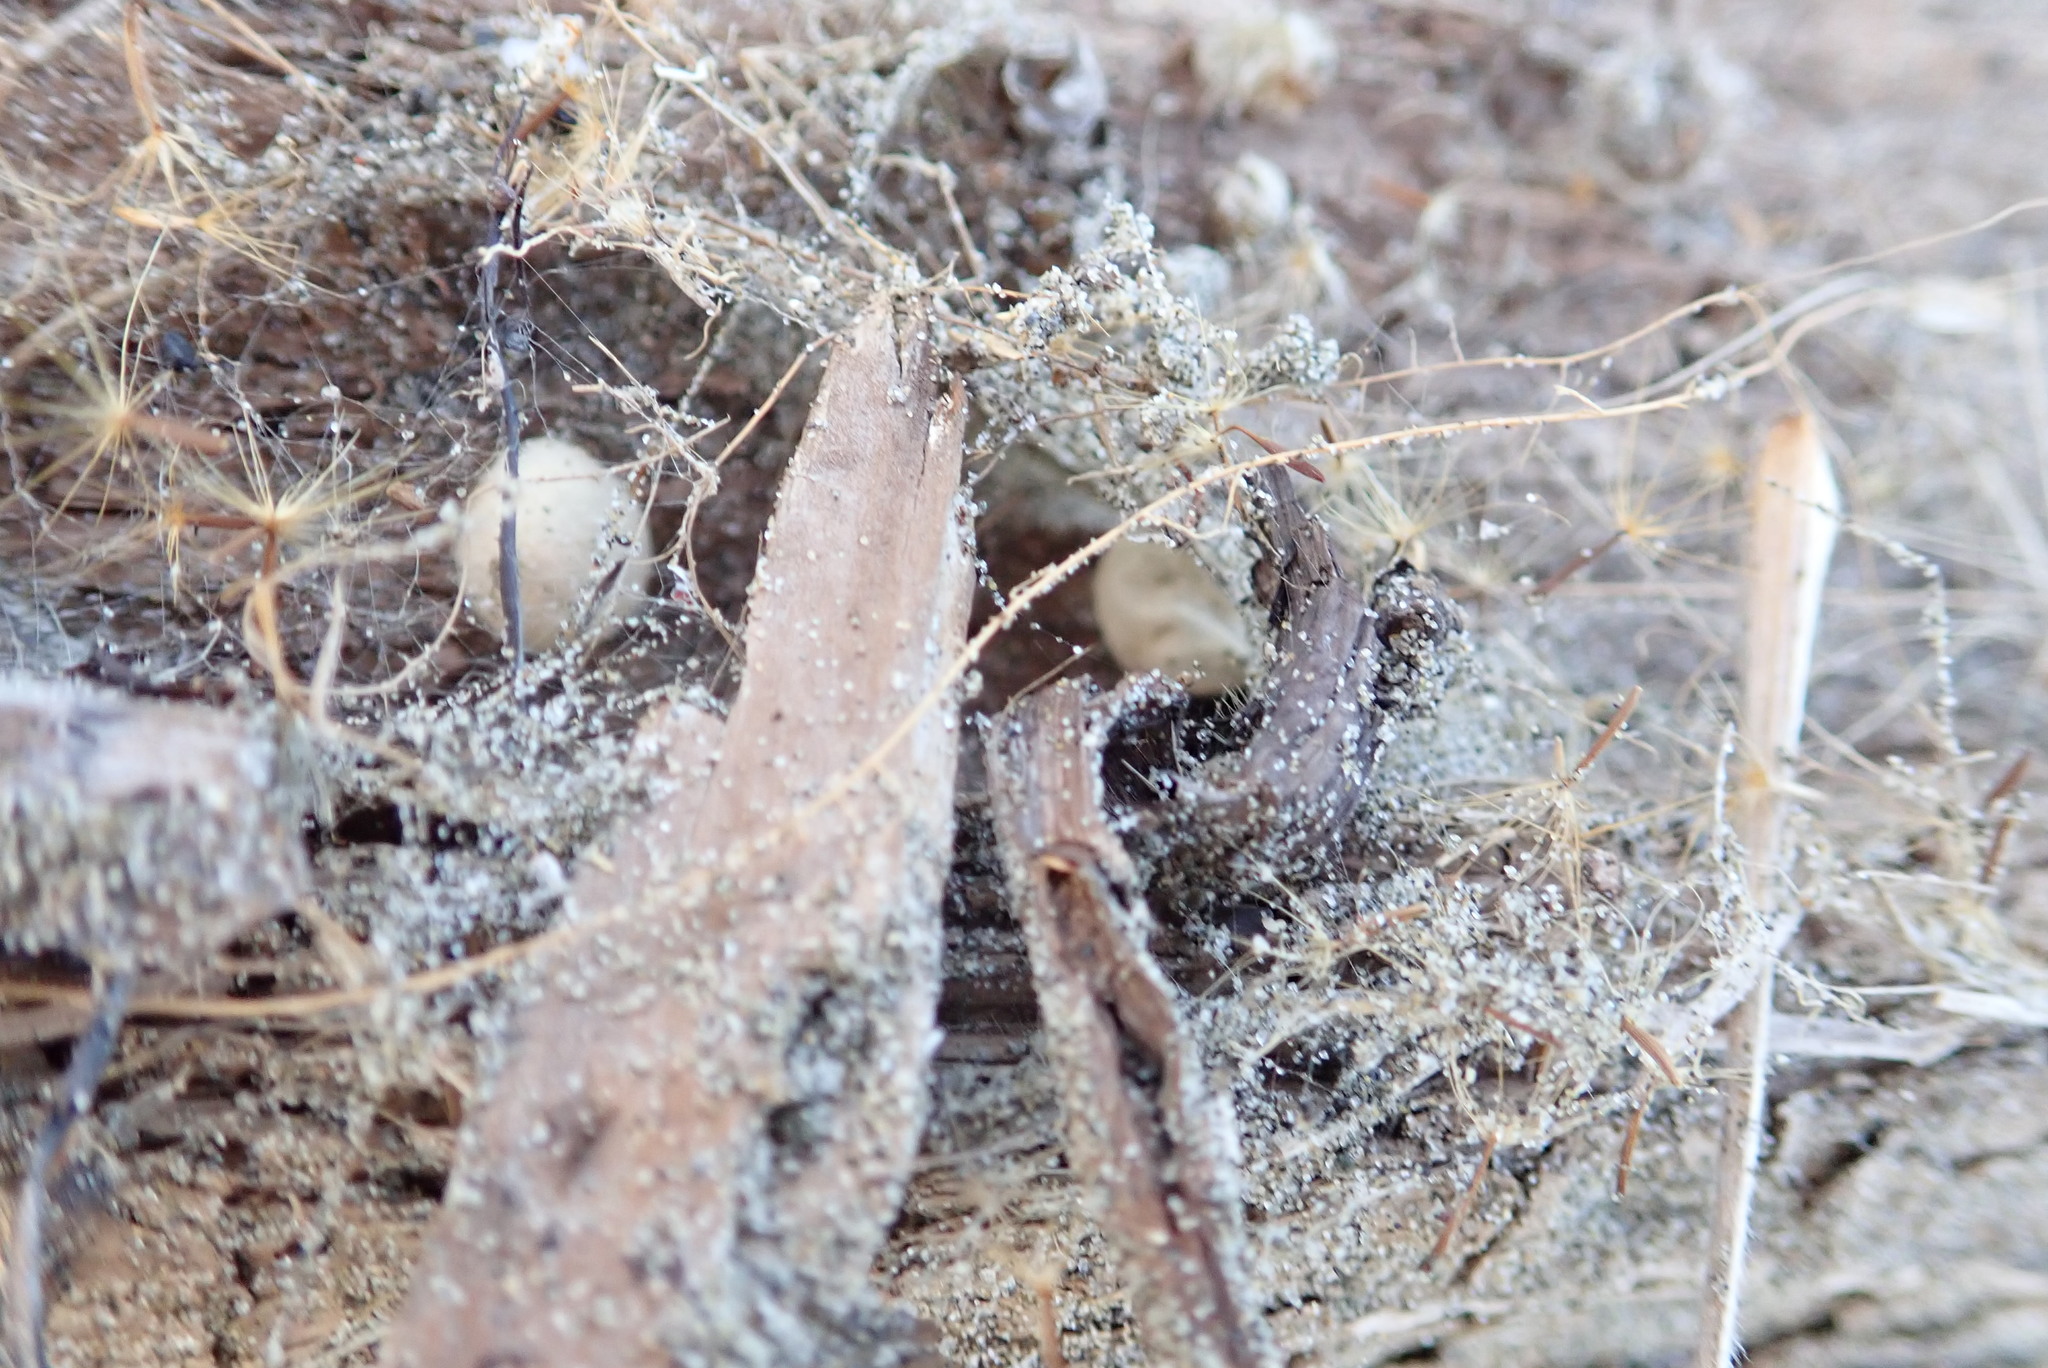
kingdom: Animalia
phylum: Arthropoda
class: Arachnida
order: Araneae
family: Theridiidae
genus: Latrodectus
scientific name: Latrodectus katipo
